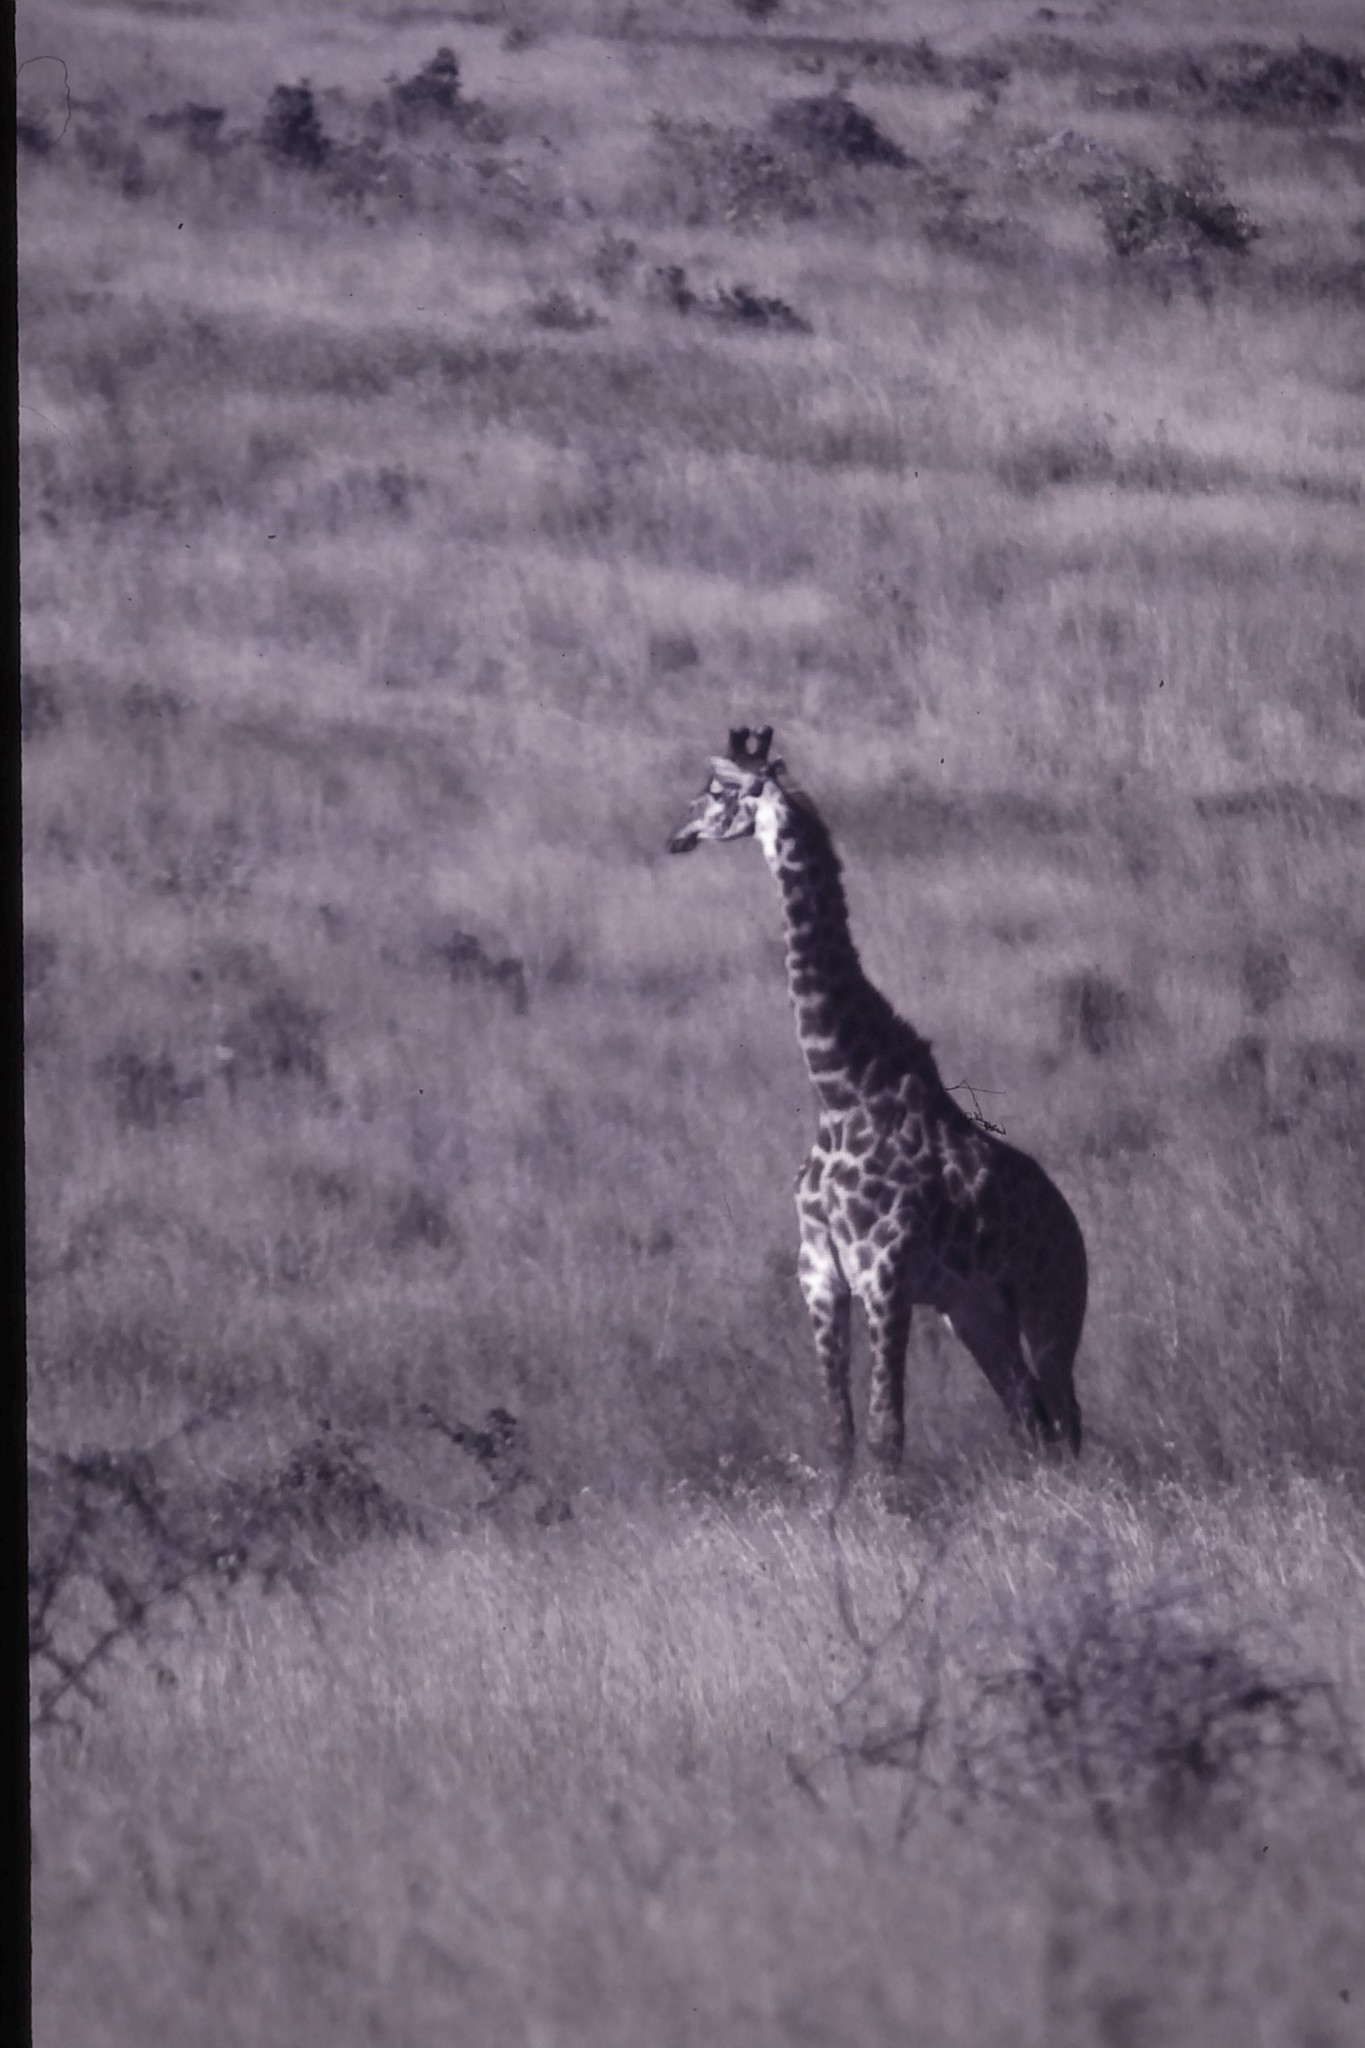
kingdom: Animalia
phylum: Chordata
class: Mammalia
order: Artiodactyla
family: Giraffidae
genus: Giraffa
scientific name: Giraffa tippelskirchi
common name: Masai giraffe
